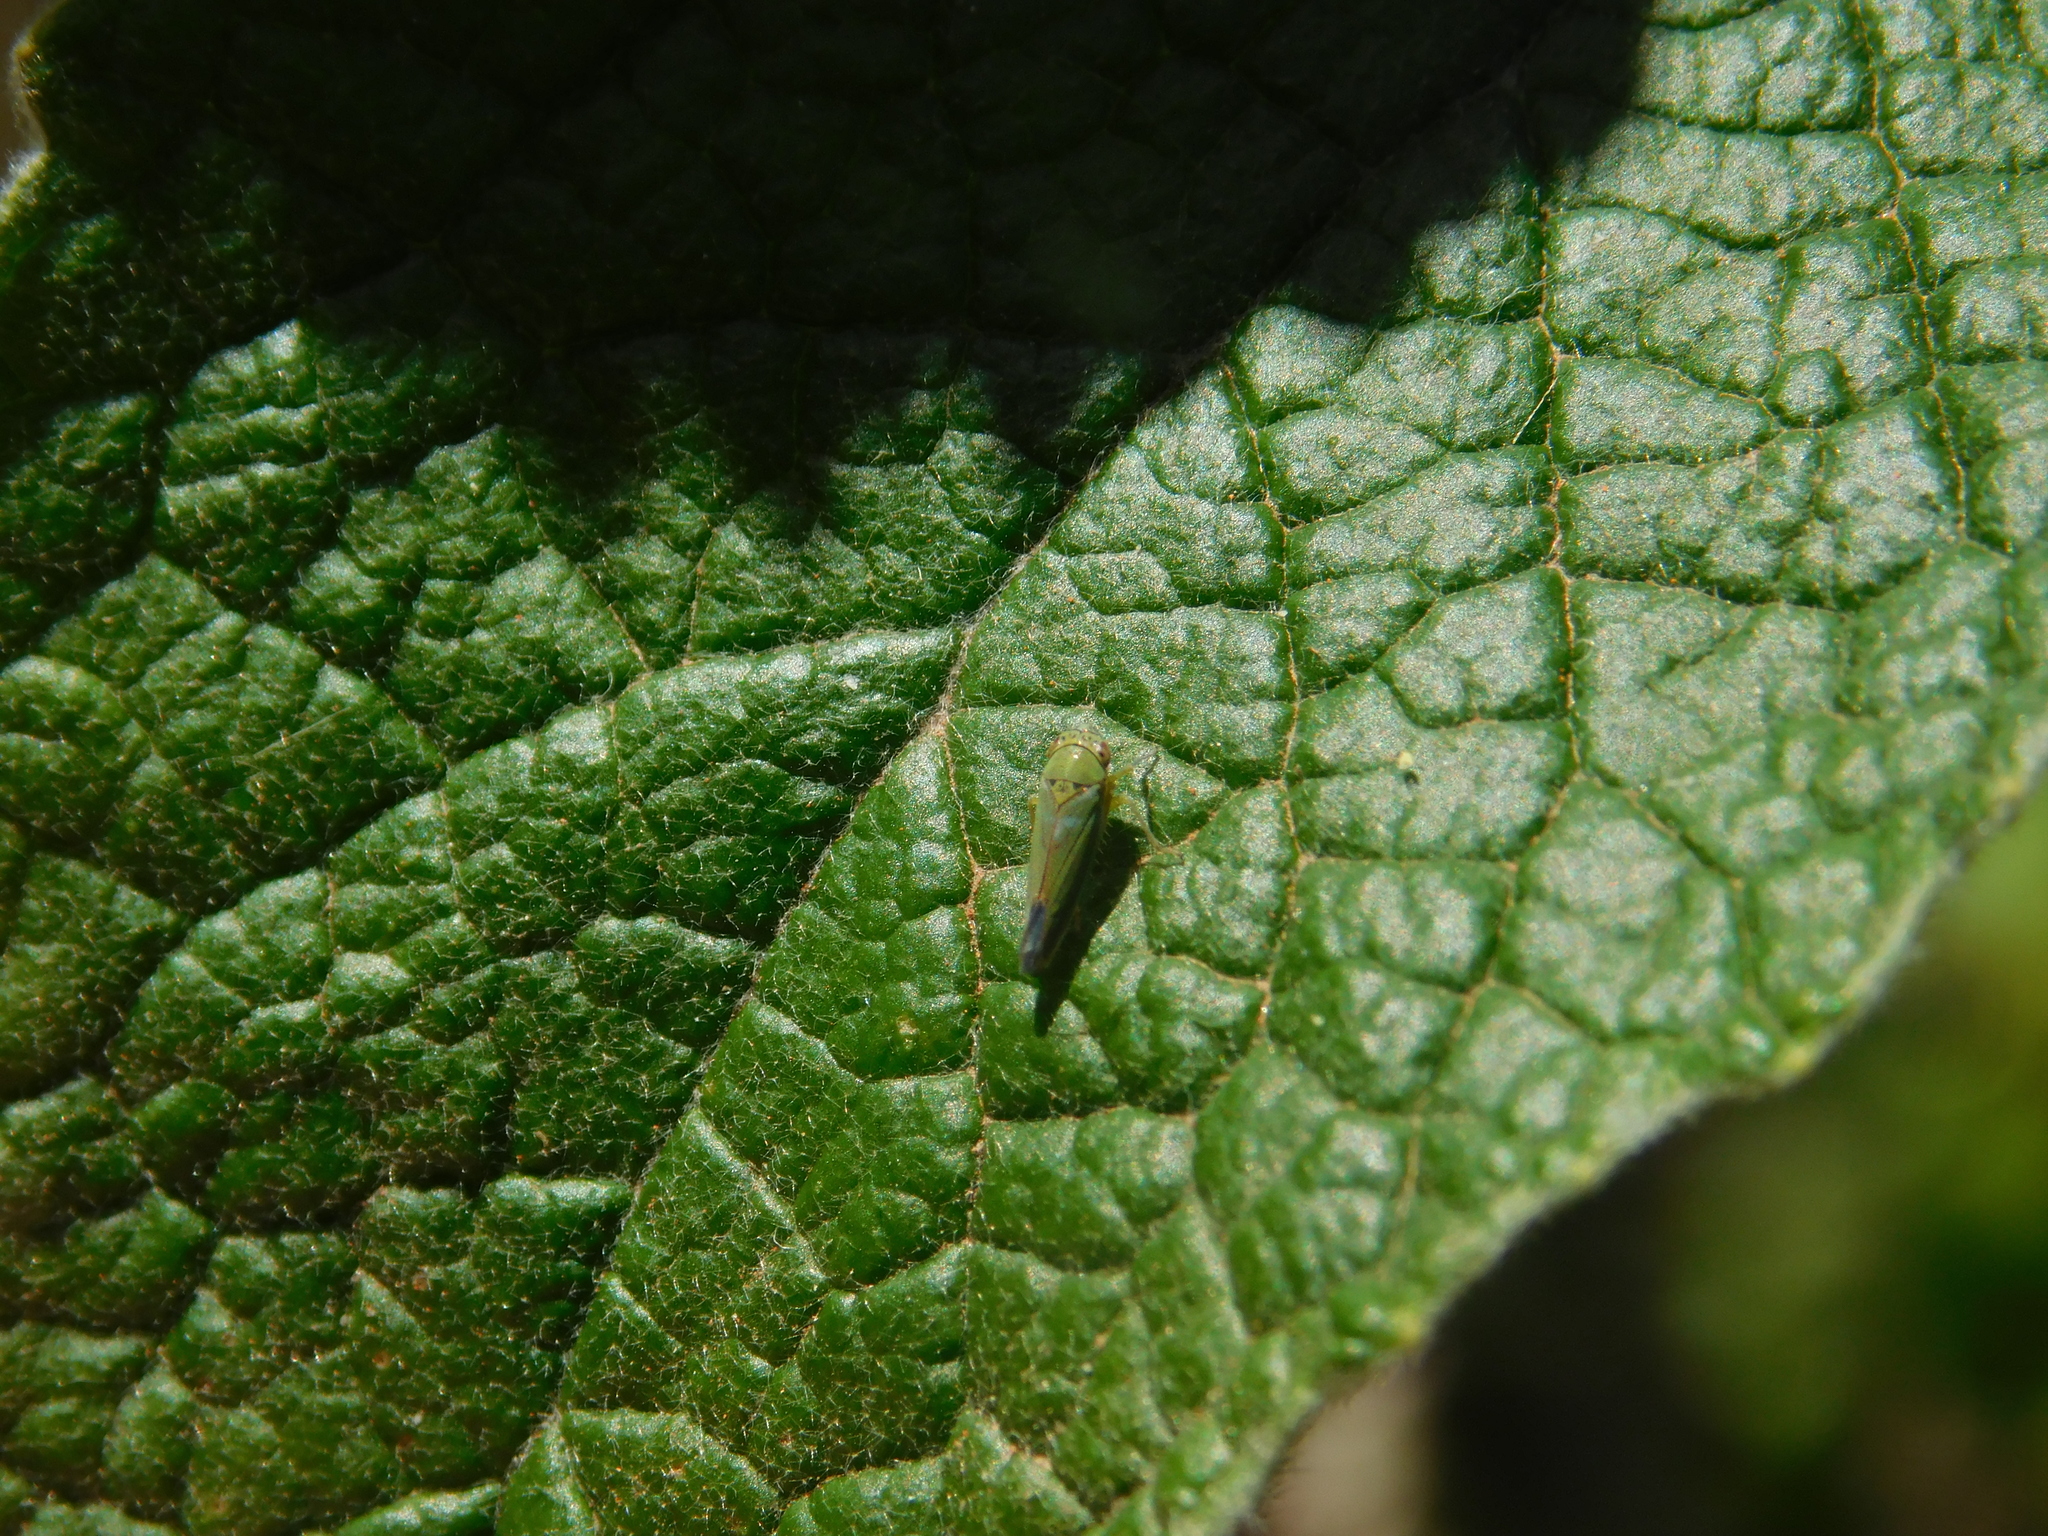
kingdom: Animalia
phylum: Arthropoda
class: Insecta
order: Hemiptera
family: Cicadellidae
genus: Bucephalogonia
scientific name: Bucephalogonia xanthophis
